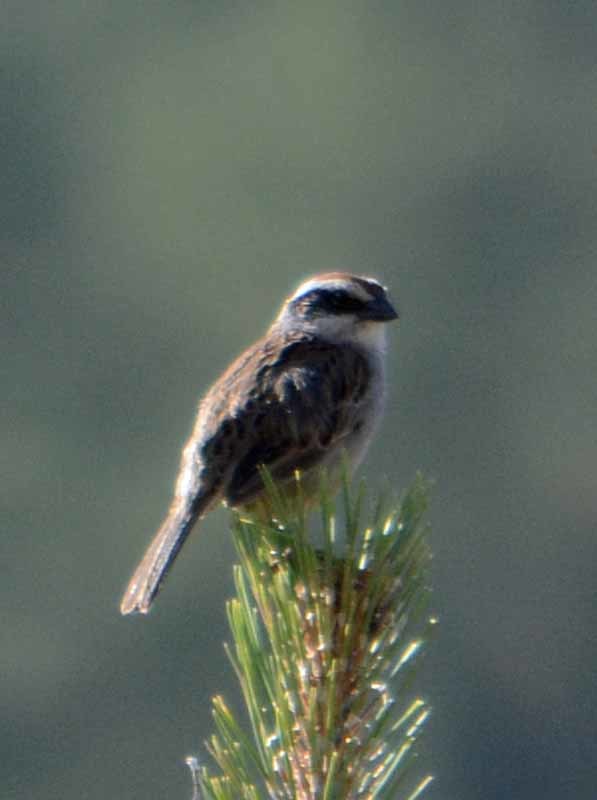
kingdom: Animalia
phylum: Chordata
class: Aves
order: Passeriformes
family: Passerellidae
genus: Oriturus
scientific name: Oriturus superciliosus
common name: Striped sparrow
